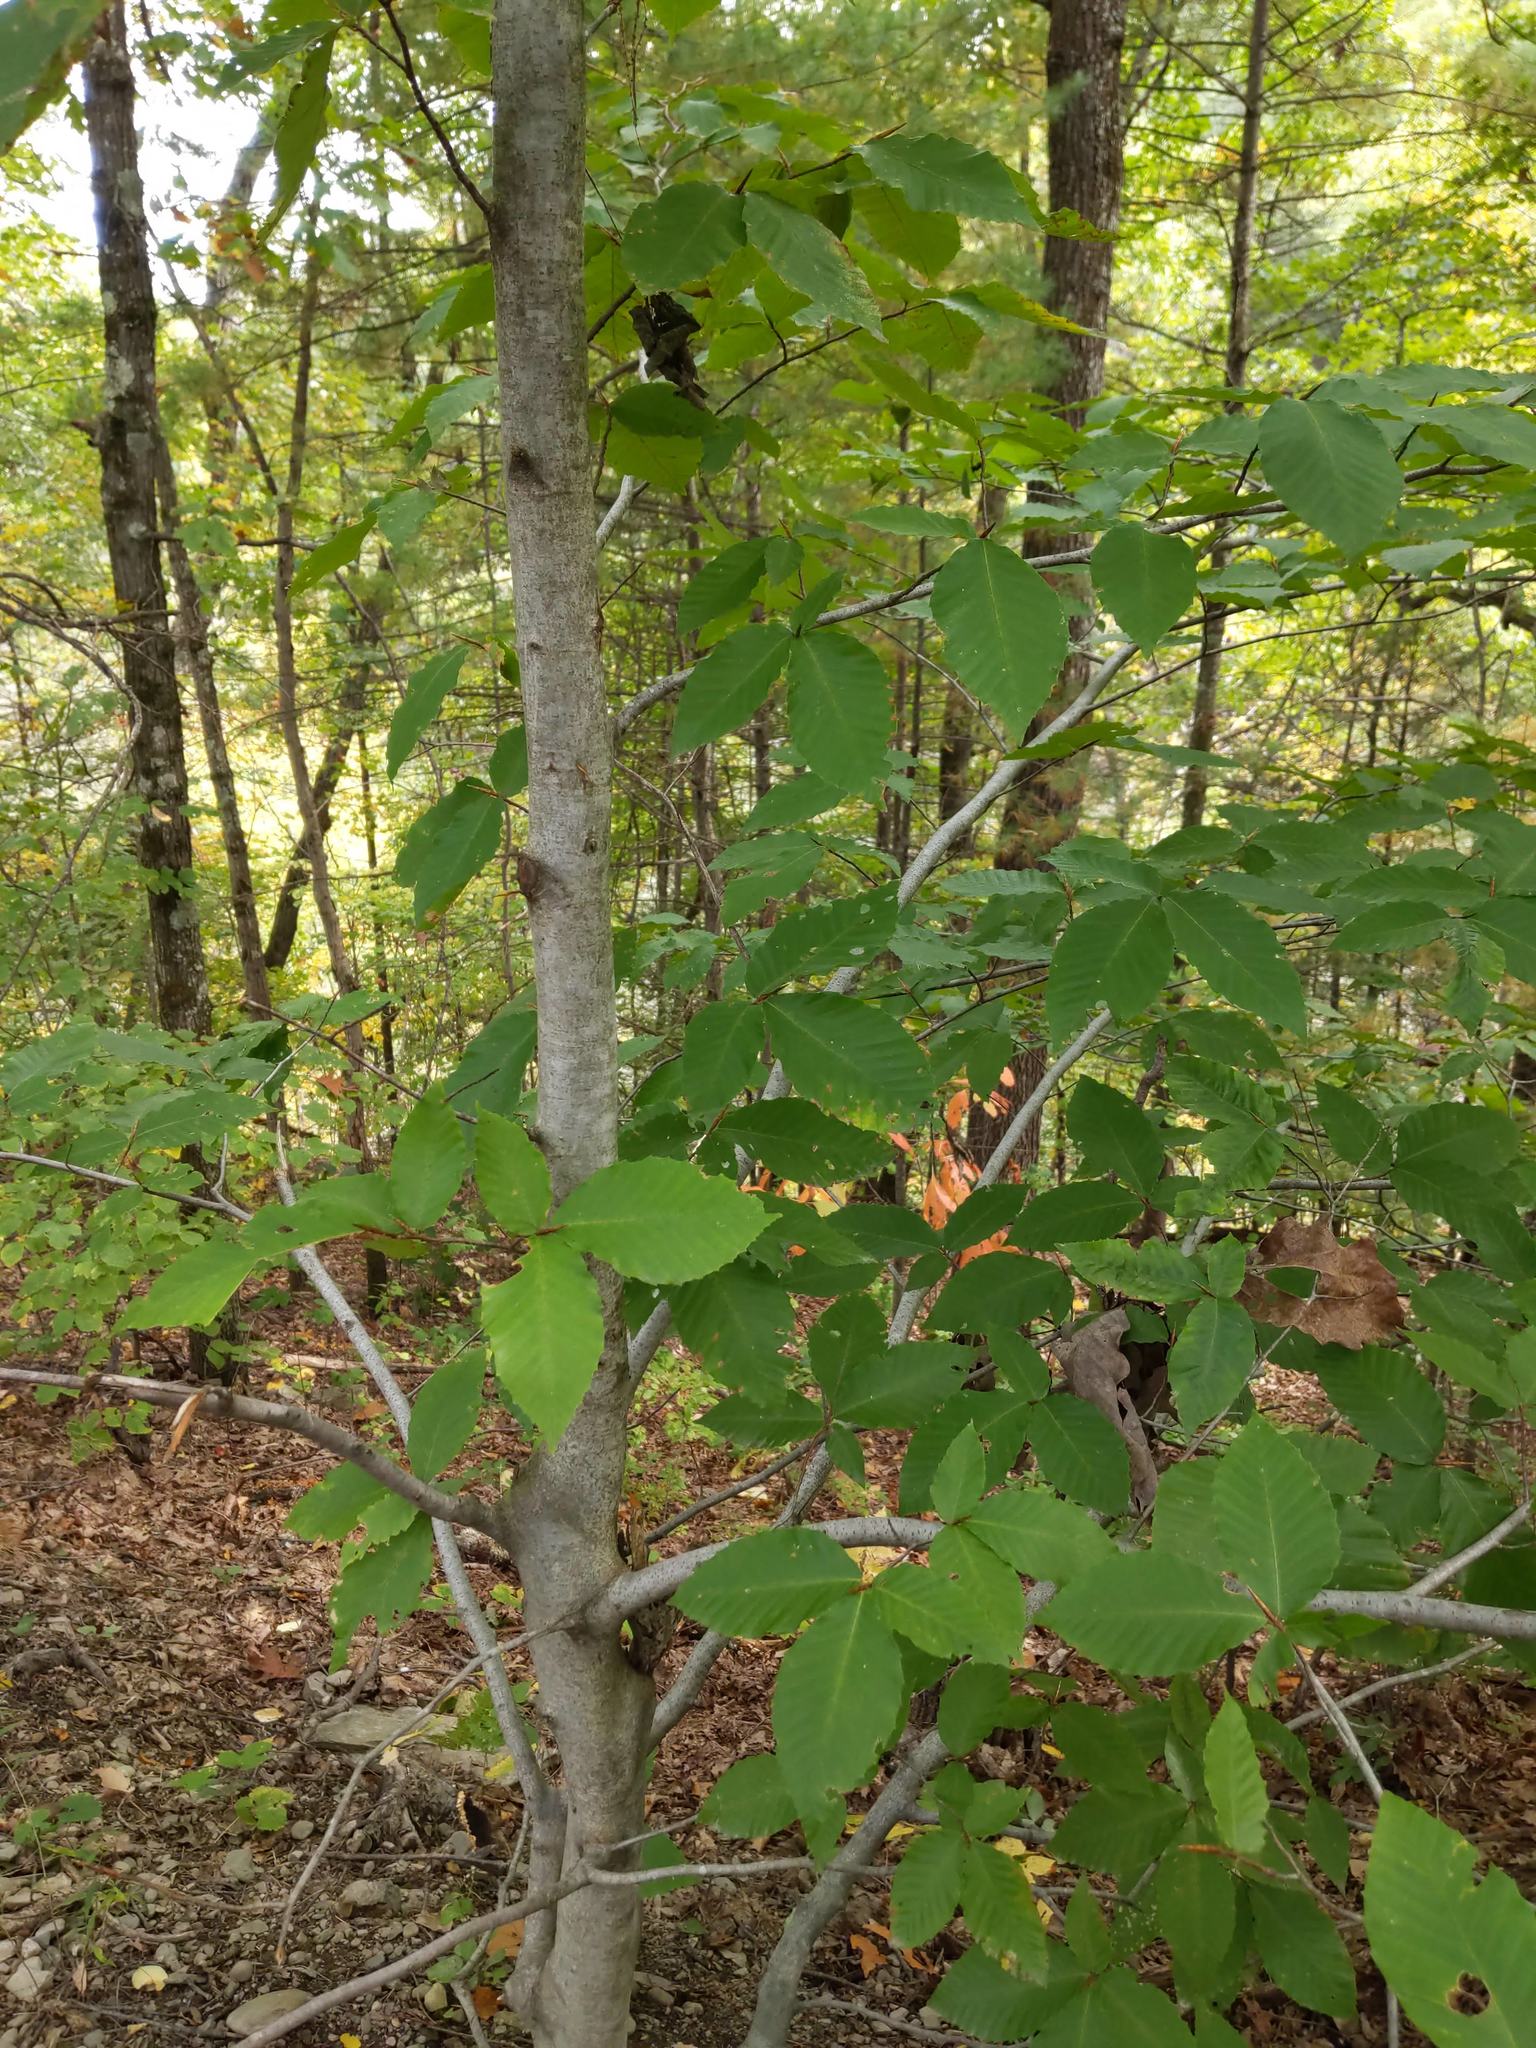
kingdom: Plantae
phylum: Tracheophyta
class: Magnoliopsida
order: Fagales
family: Fagaceae
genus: Fagus
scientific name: Fagus grandifolia
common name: American beech
